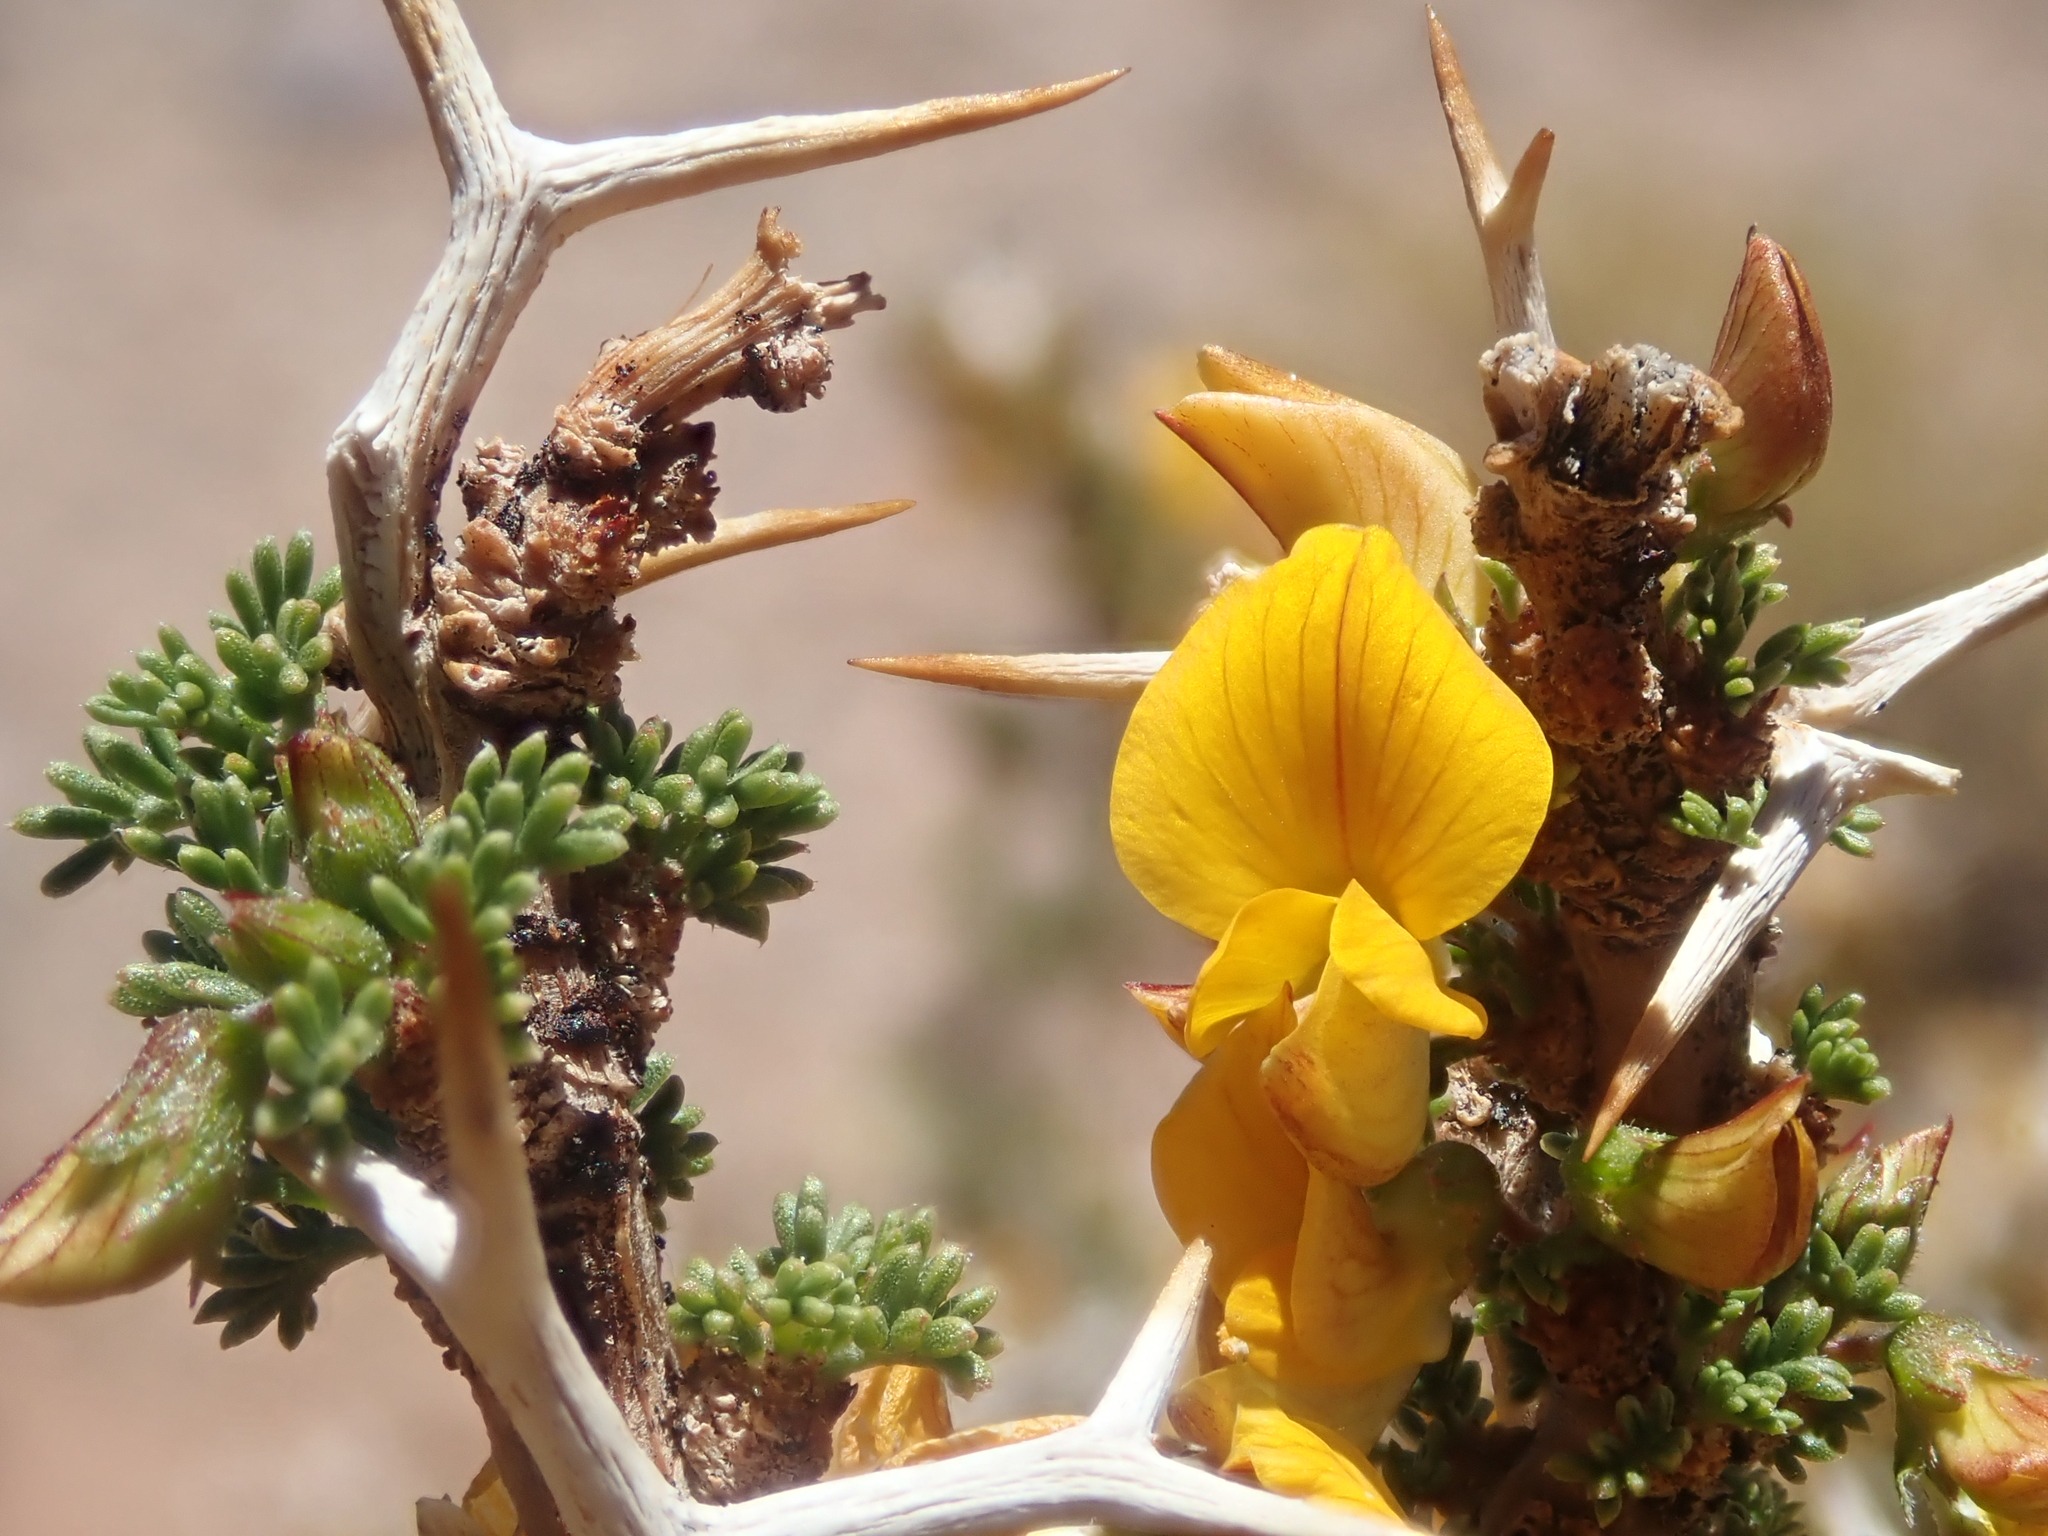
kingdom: Plantae
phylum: Tracheophyta
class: Magnoliopsida
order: Fabales
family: Fabaceae
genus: Adesmia
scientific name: Adesmia horrida
